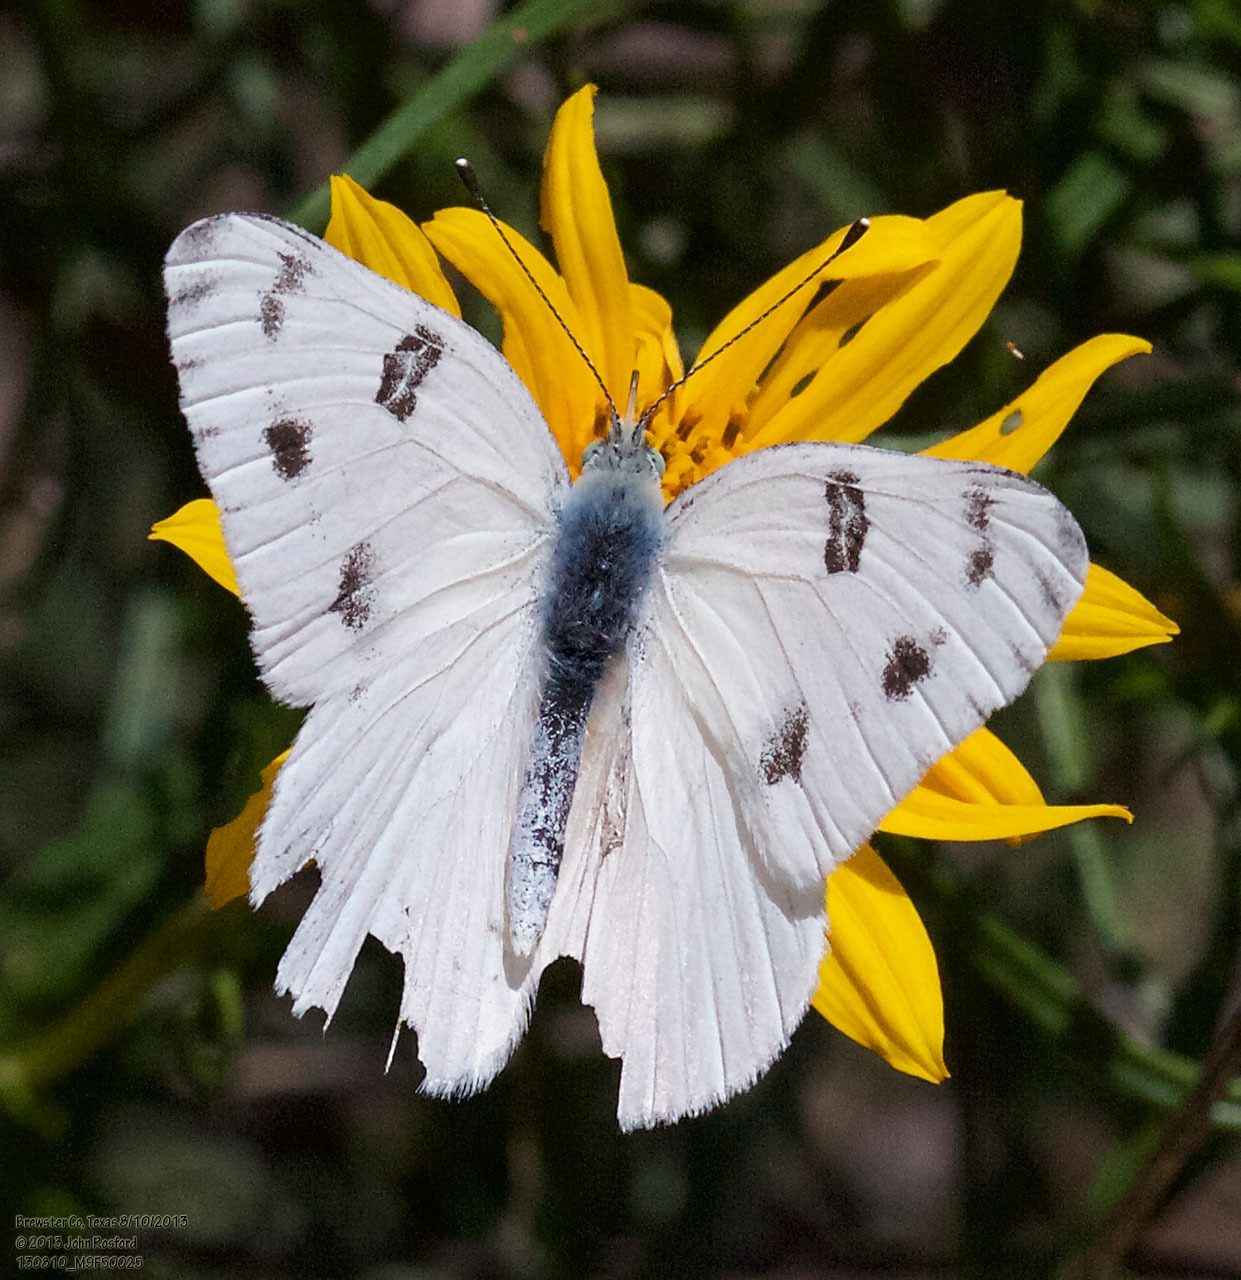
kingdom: Animalia
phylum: Arthropoda
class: Insecta
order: Lepidoptera
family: Pieridae
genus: Pontia
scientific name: Pontia protodice
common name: Checkered white
